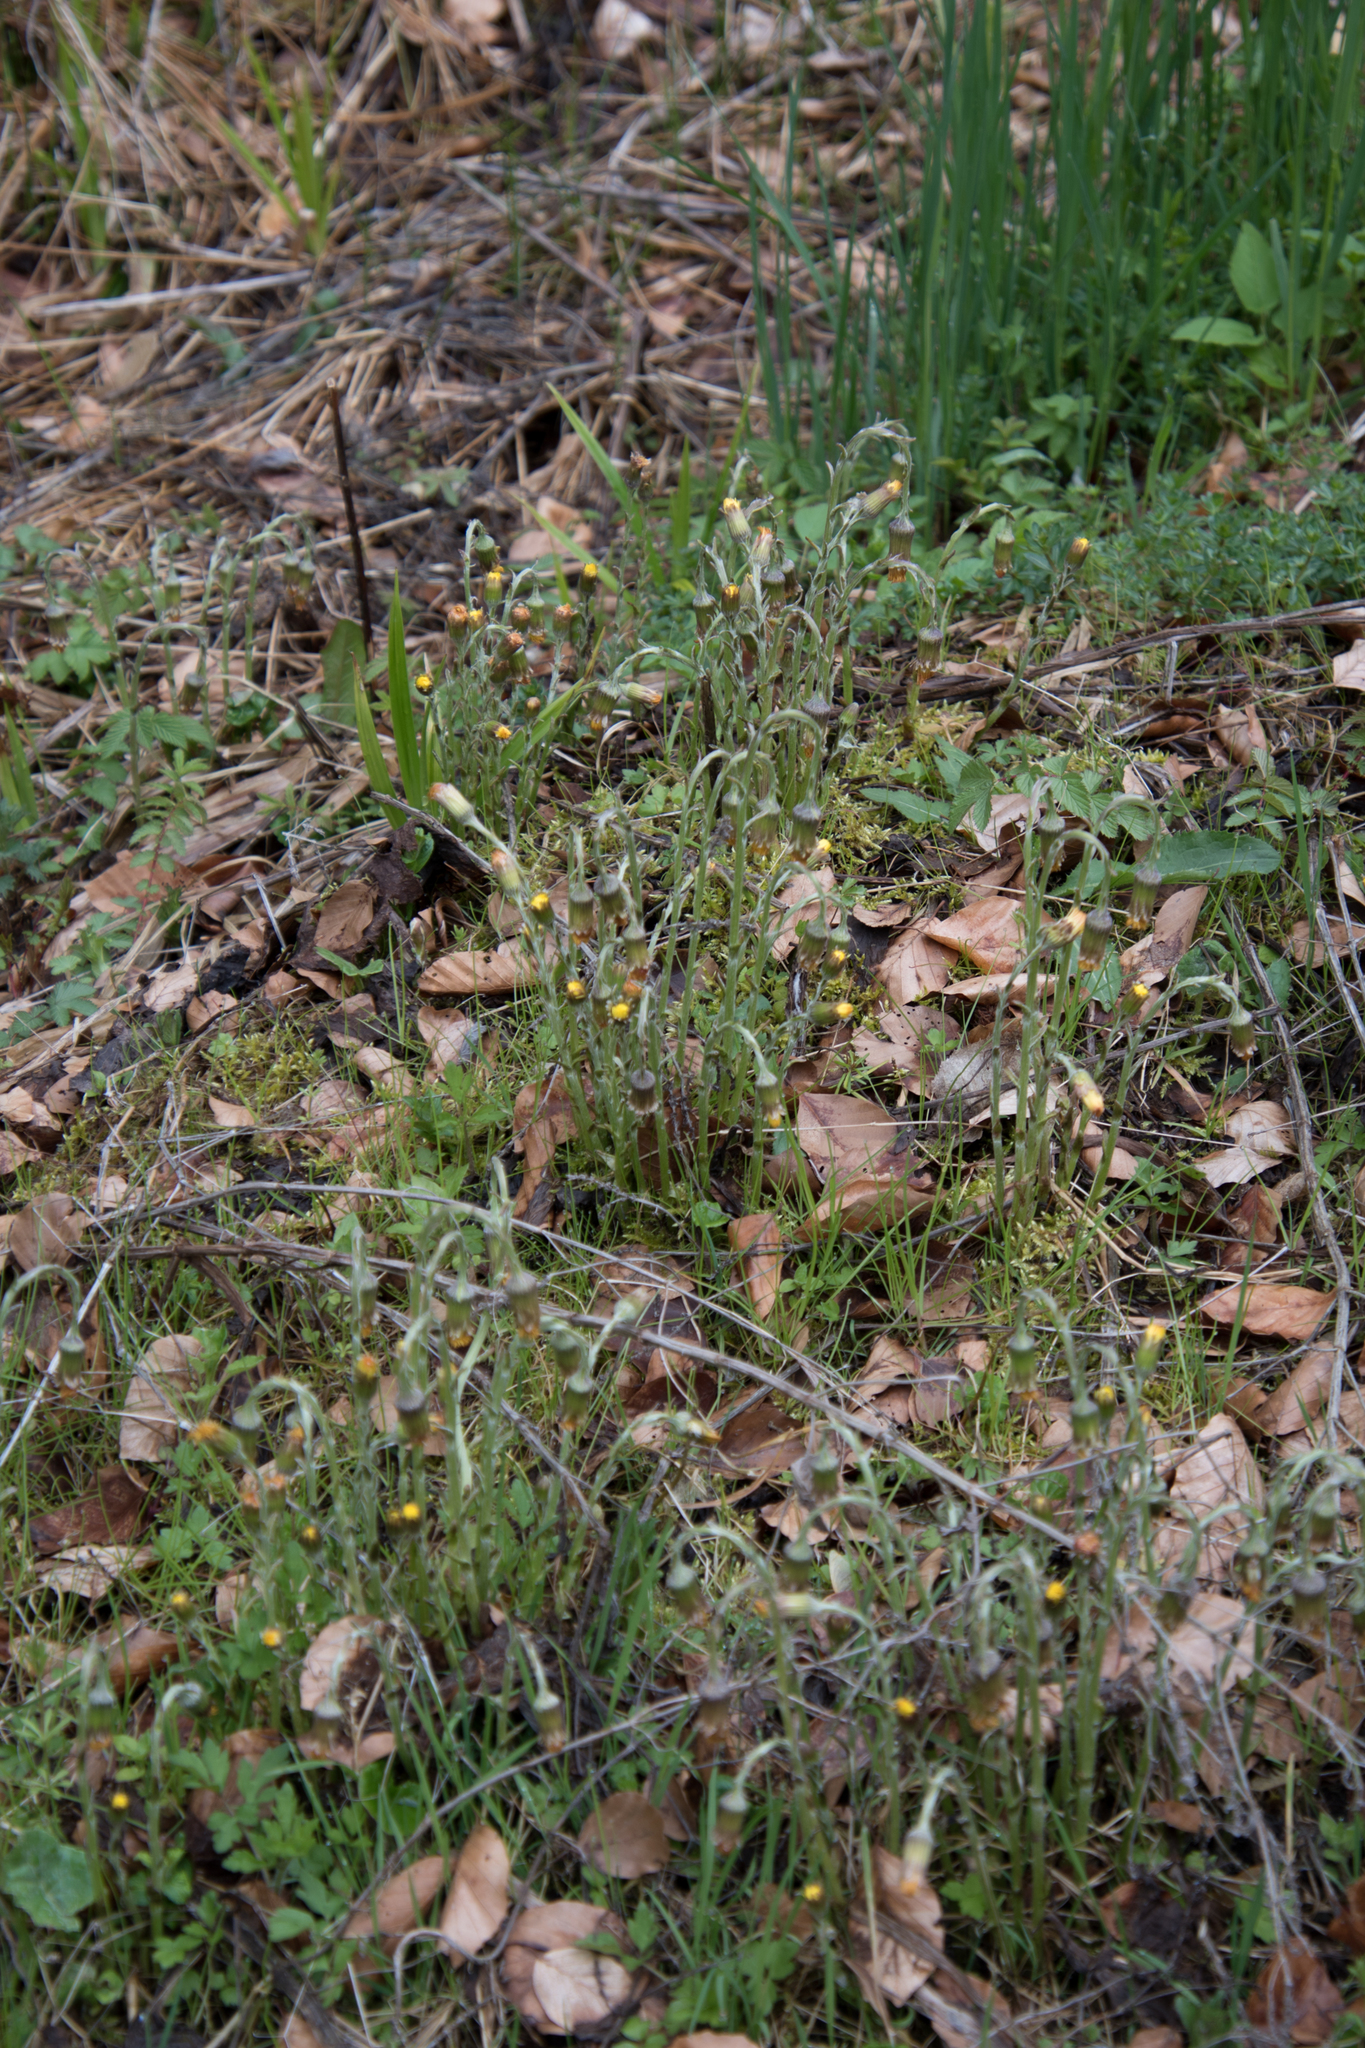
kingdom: Plantae
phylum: Tracheophyta
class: Magnoliopsida
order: Asterales
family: Asteraceae
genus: Tussilago
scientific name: Tussilago farfara
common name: Coltsfoot
